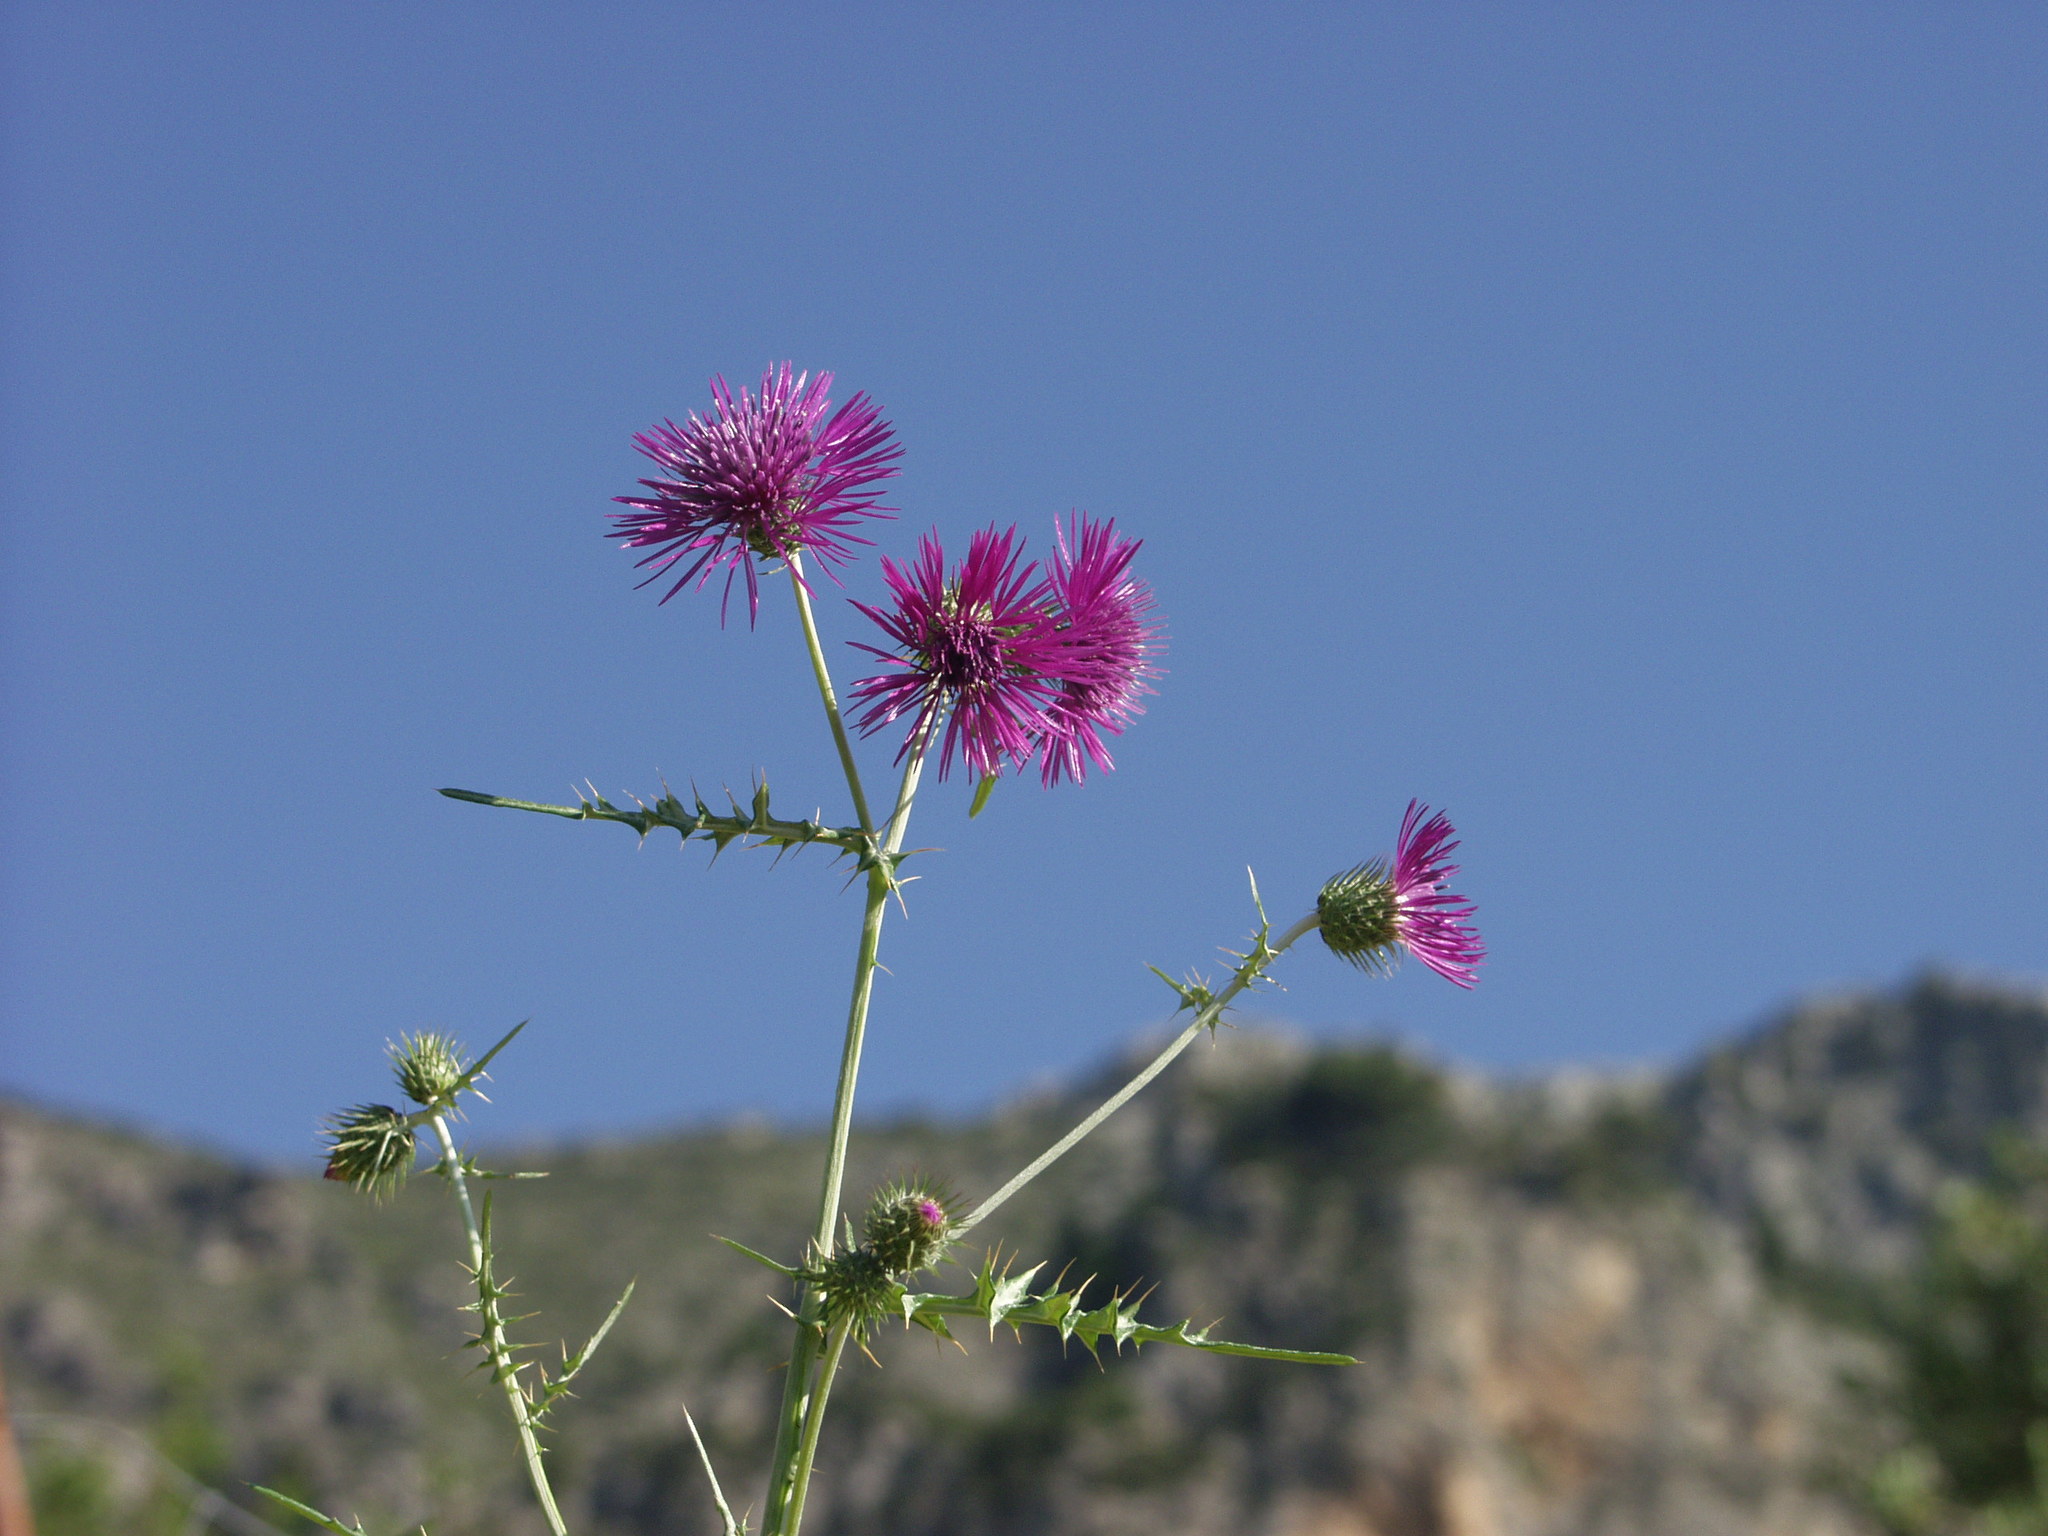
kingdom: Plantae
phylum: Tracheophyta
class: Magnoliopsida
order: Asterales
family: Asteraceae
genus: Galactites
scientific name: Galactites tomentosa
